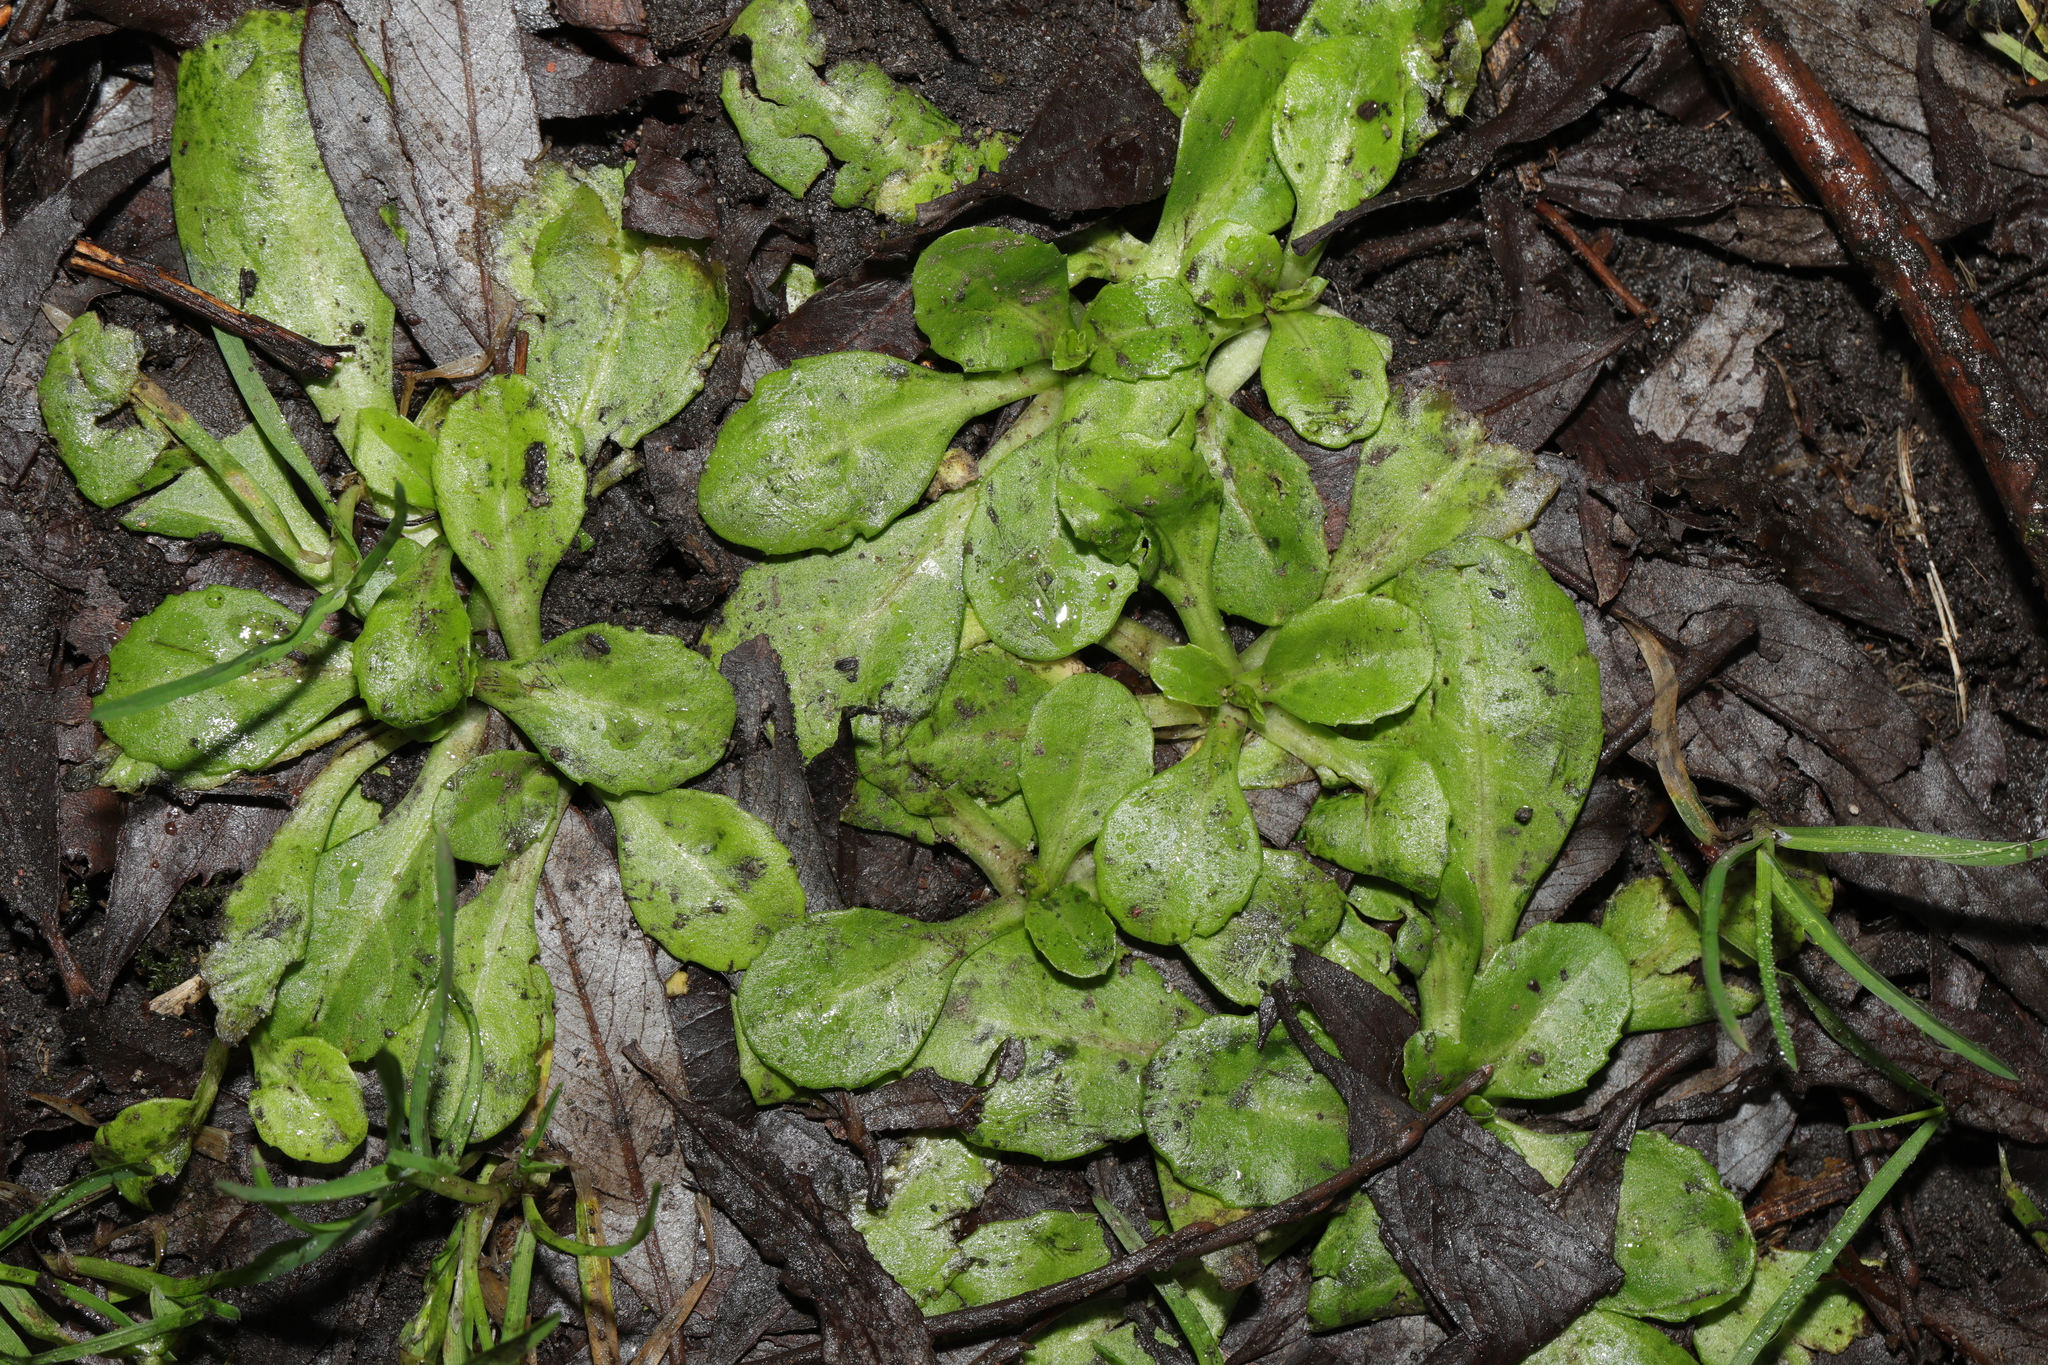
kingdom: Plantae
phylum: Tracheophyta
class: Magnoliopsida
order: Asterales
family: Asteraceae
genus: Bellis
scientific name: Bellis perennis
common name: Lawndaisy
